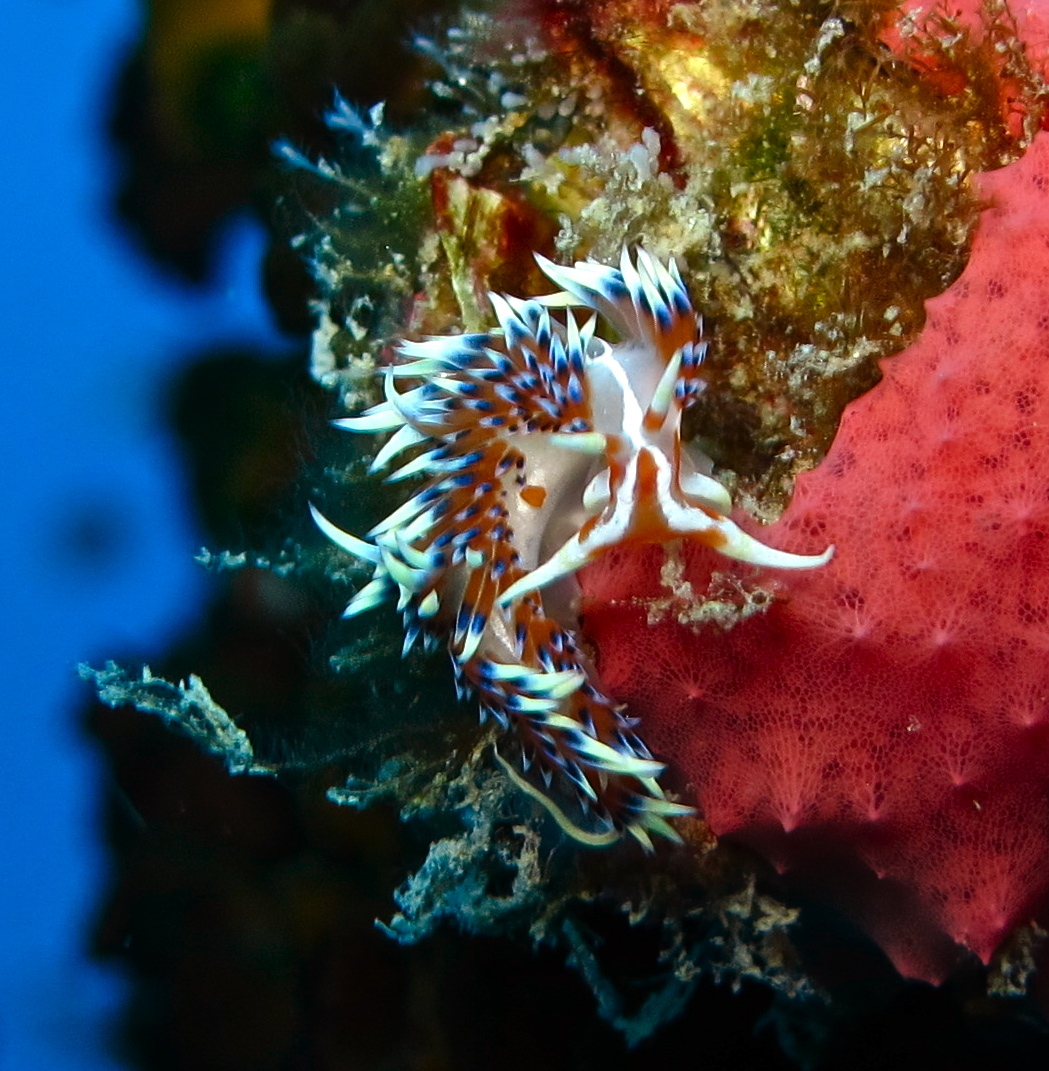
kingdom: Animalia
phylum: Mollusca
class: Gastropoda
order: Nudibranchia
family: Facelinidae
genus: Caloria
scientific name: Caloria indica
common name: Sea slug
